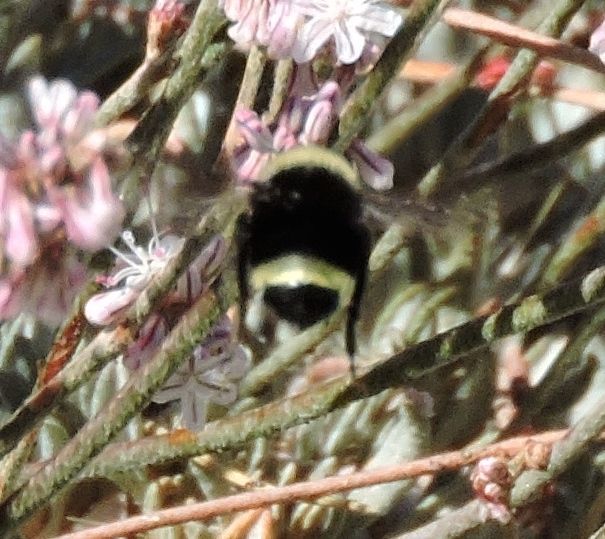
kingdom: Animalia
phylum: Arthropoda
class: Insecta
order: Hymenoptera
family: Apidae
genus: Bombus
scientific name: Bombus vosnesenskii
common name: Vosnesensky bumble bee
